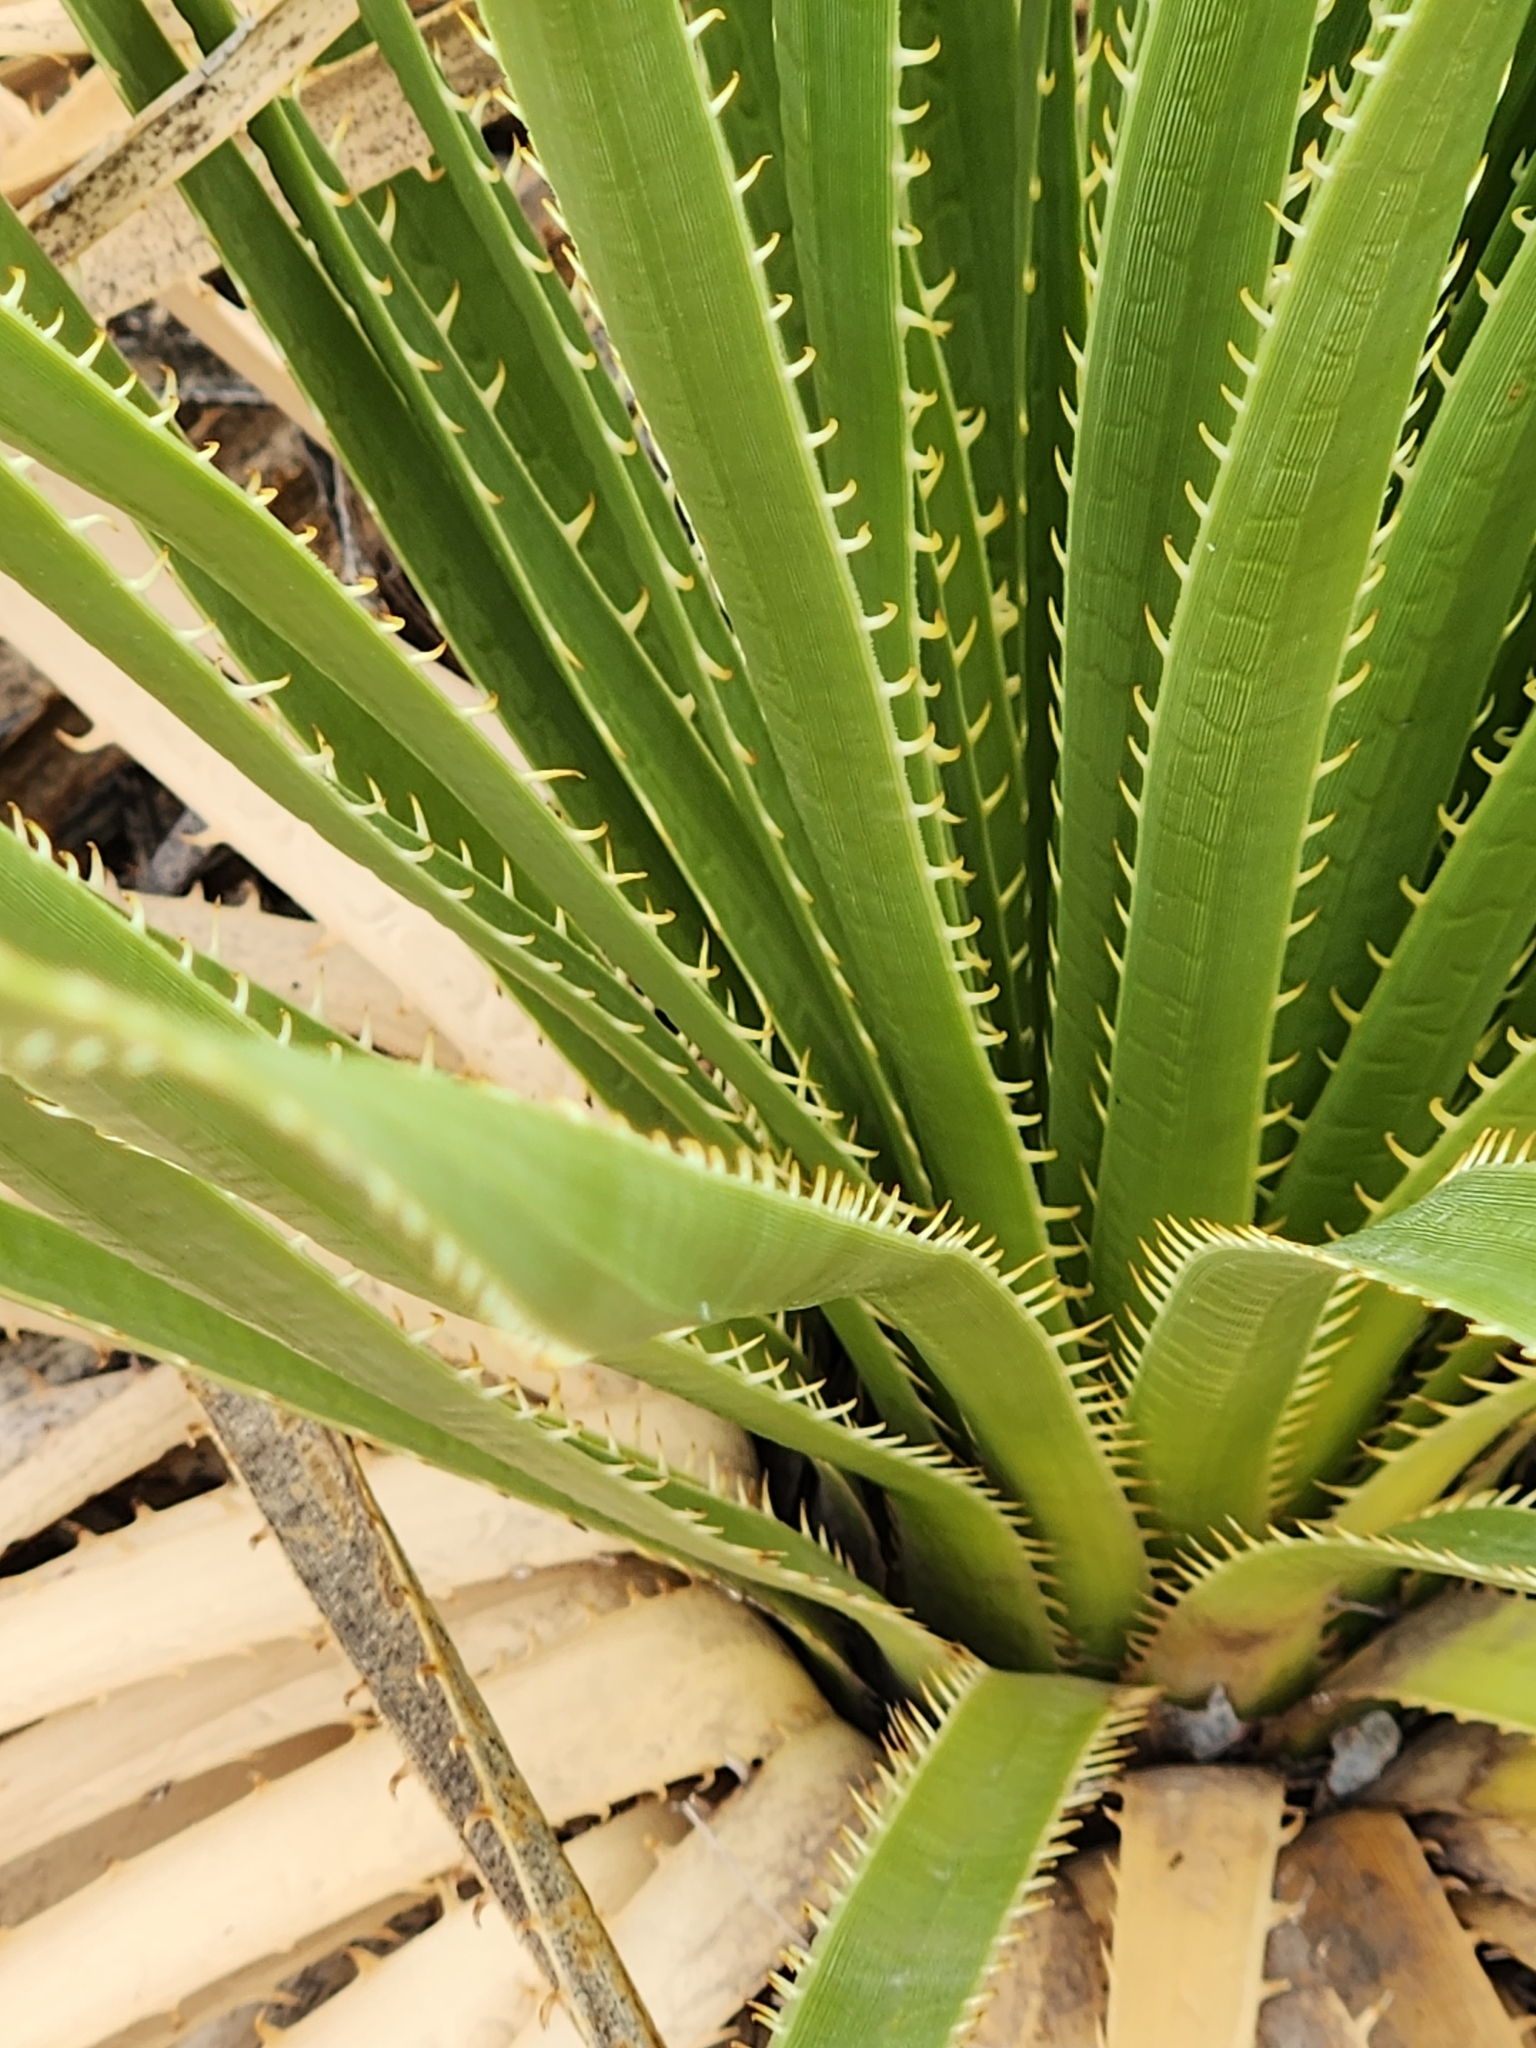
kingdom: Plantae
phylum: Tracheophyta
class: Liliopsida
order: Asparagales
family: Asparagaceae
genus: Dasylirion
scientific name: Dasylirion texanum
